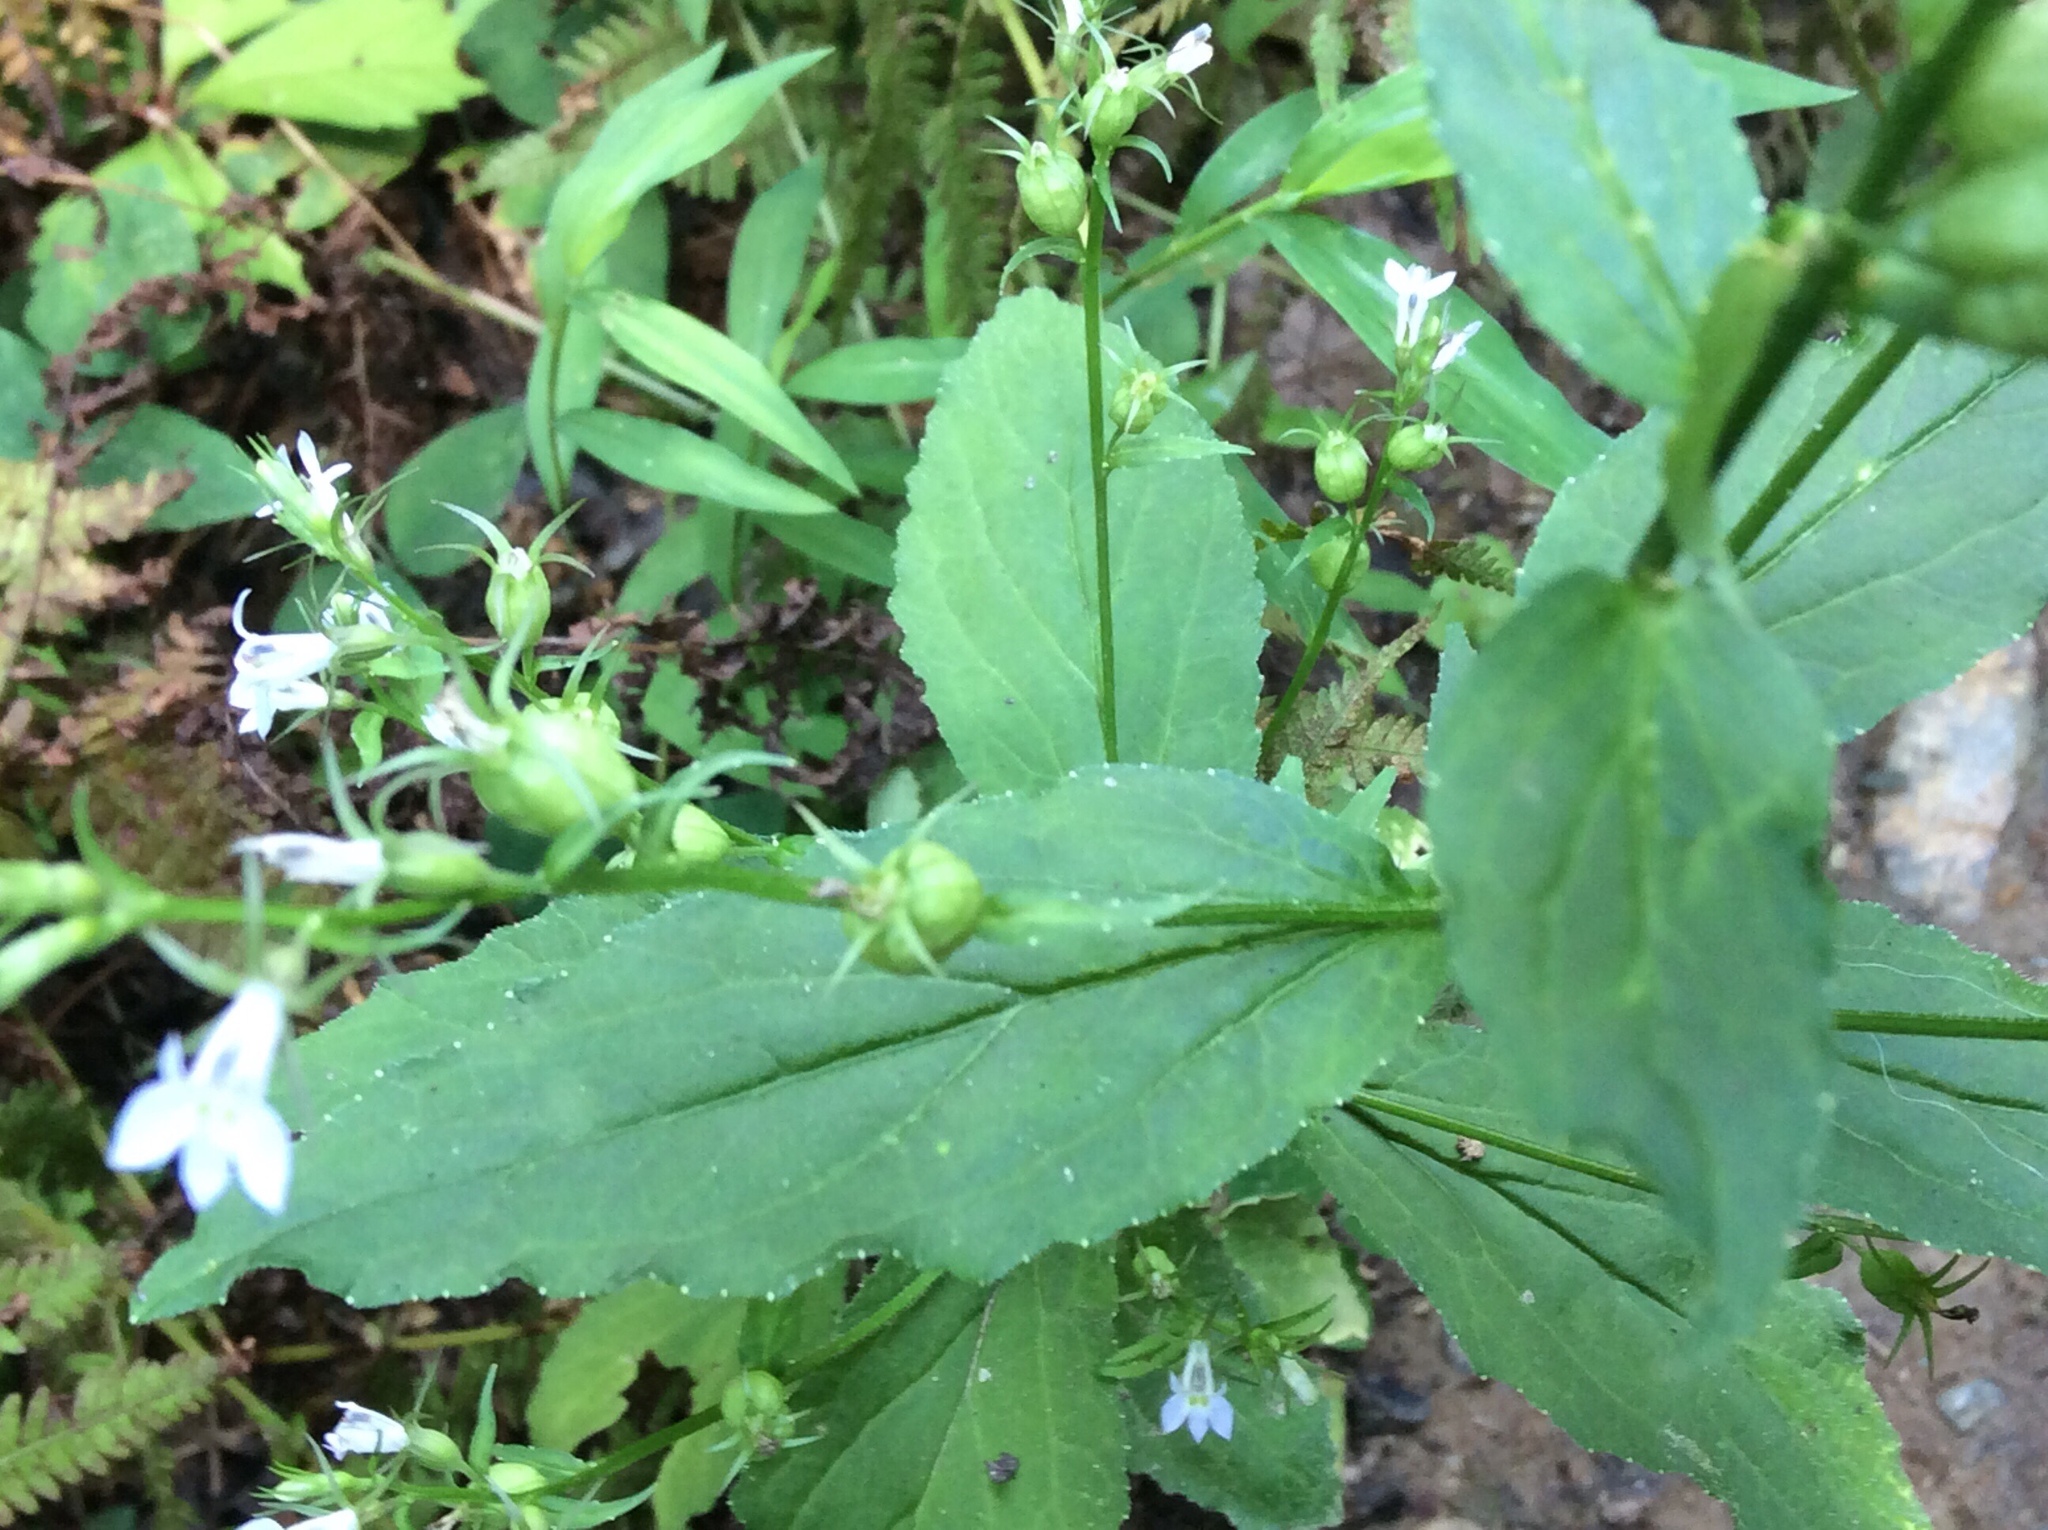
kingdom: Plantae
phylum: Tracheophyta
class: Magnoliopsida
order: Asterales
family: Campanulaceae
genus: Lobelia
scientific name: Lobelia inflata
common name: Indian tobacco
